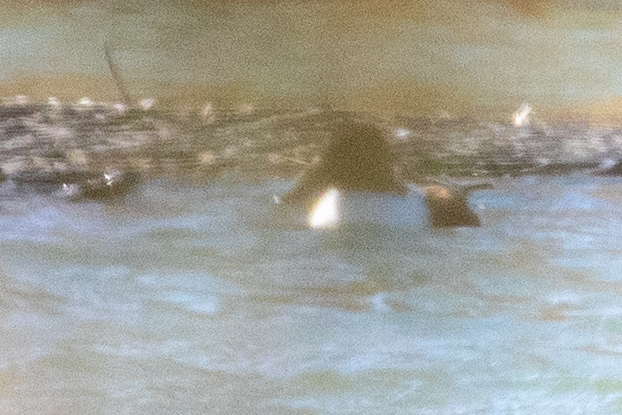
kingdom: Animalia
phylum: Chordata
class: Aves
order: Anseriformes
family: Anatidae
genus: Spatula
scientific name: Spatula clypeata
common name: Northern shoveler
